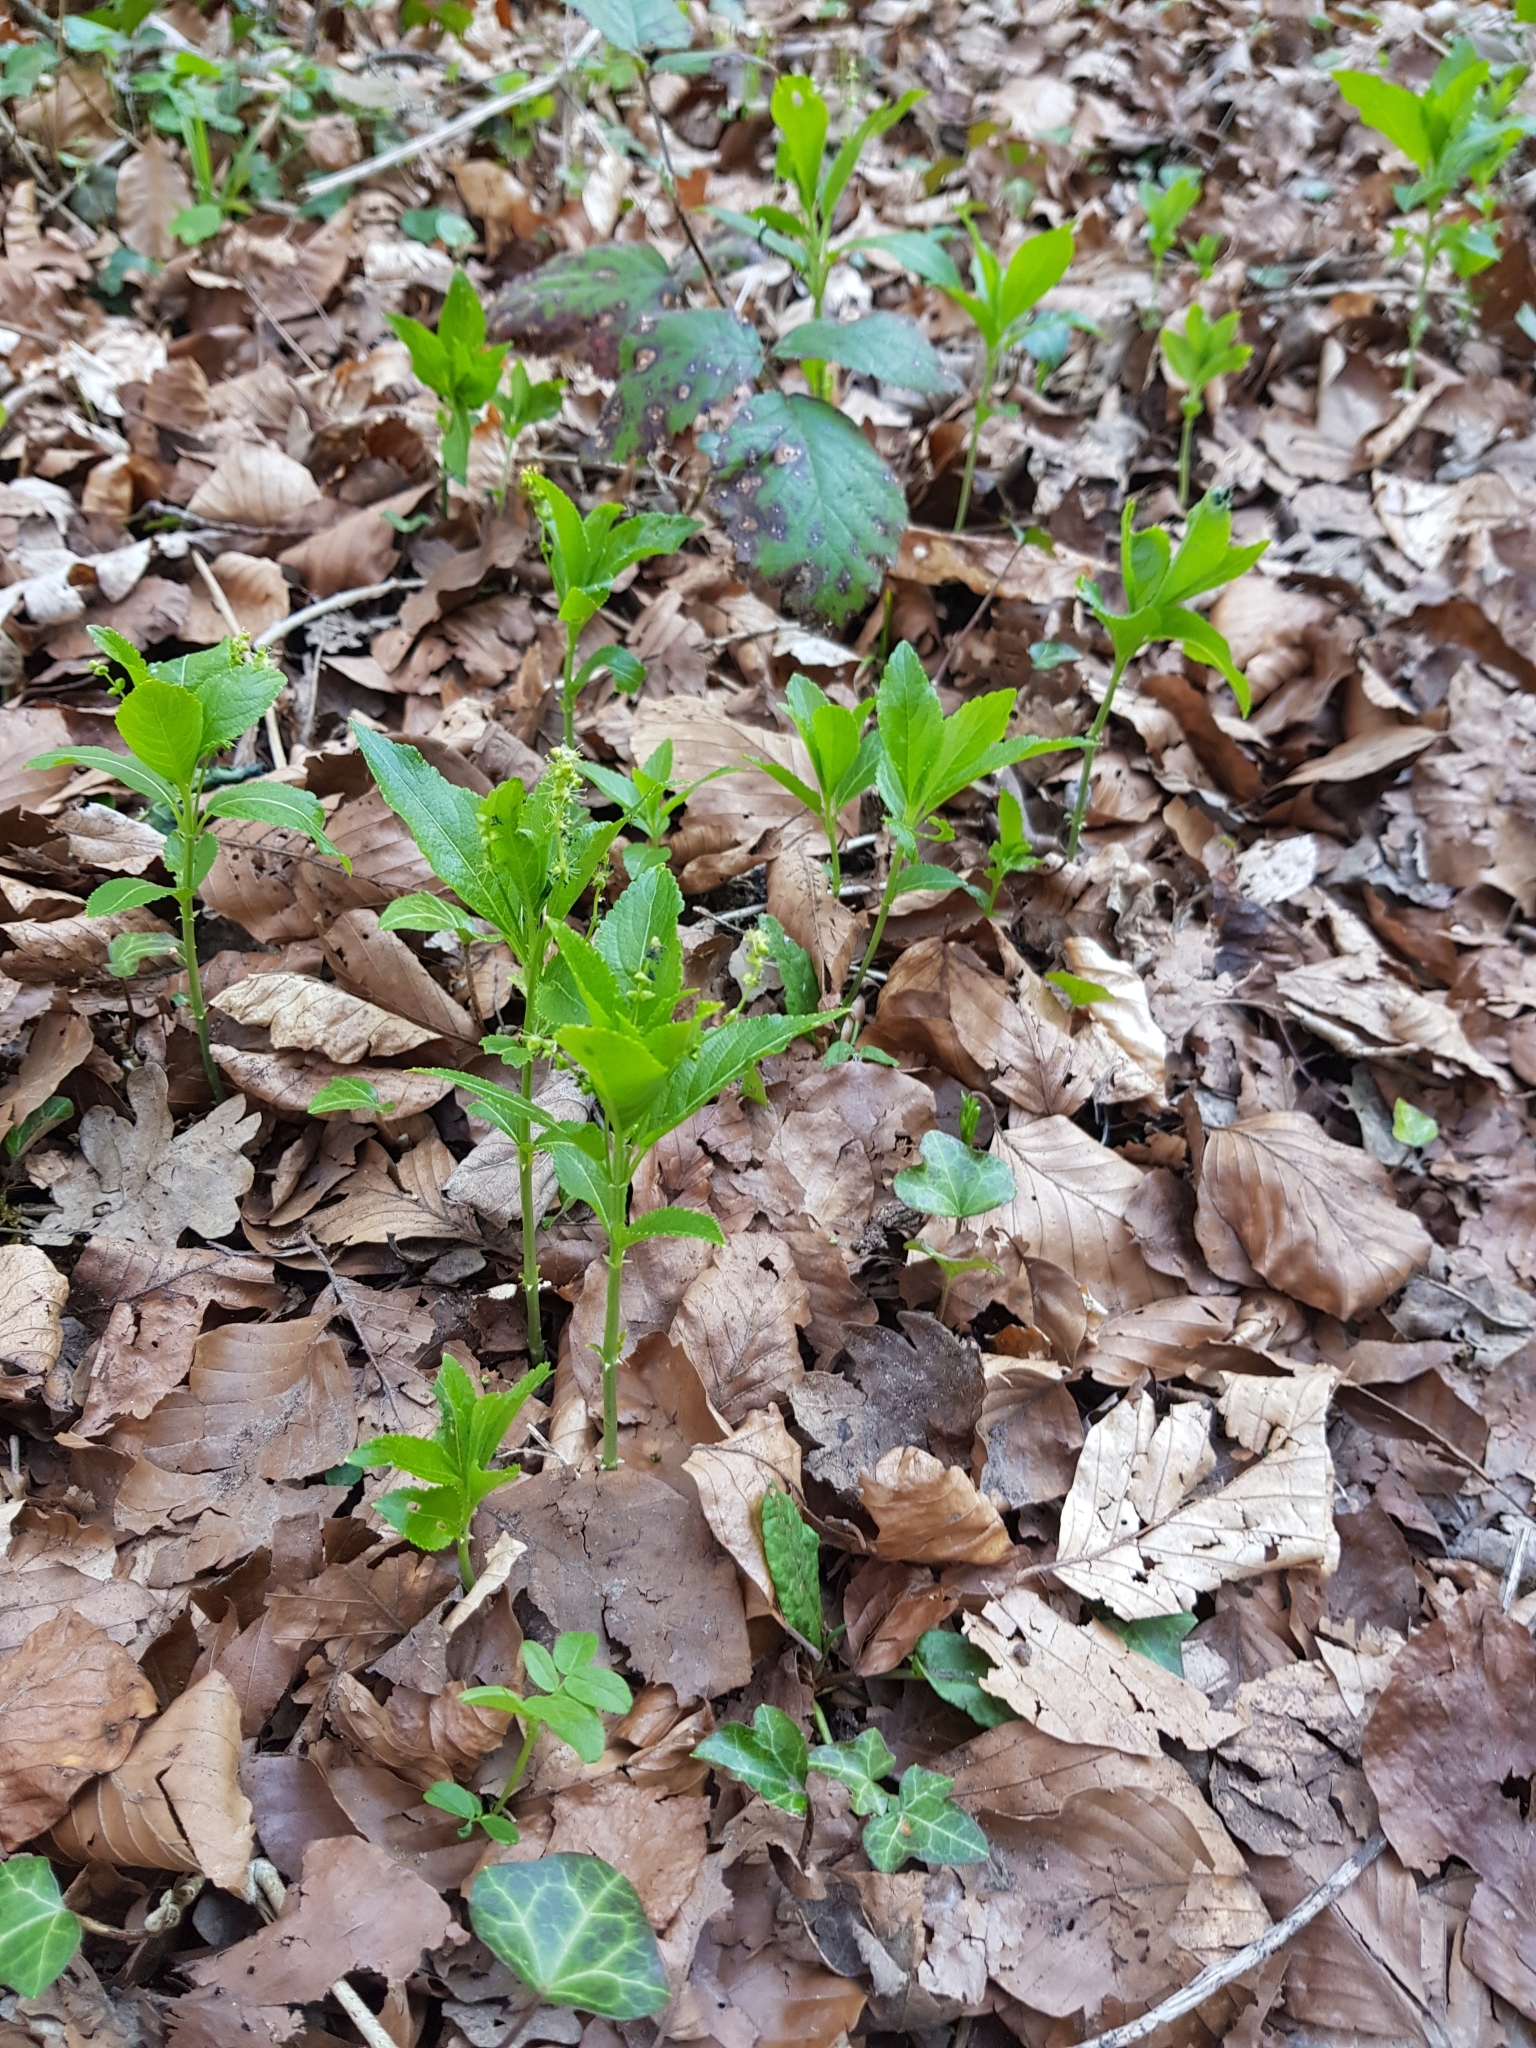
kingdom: Plantae
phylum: Tracheophyta
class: Magnoliopsida
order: Malpighiales
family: Euphorbiaceae
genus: Mercurialis
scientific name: Mercurialis perennis
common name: Dog mercury
